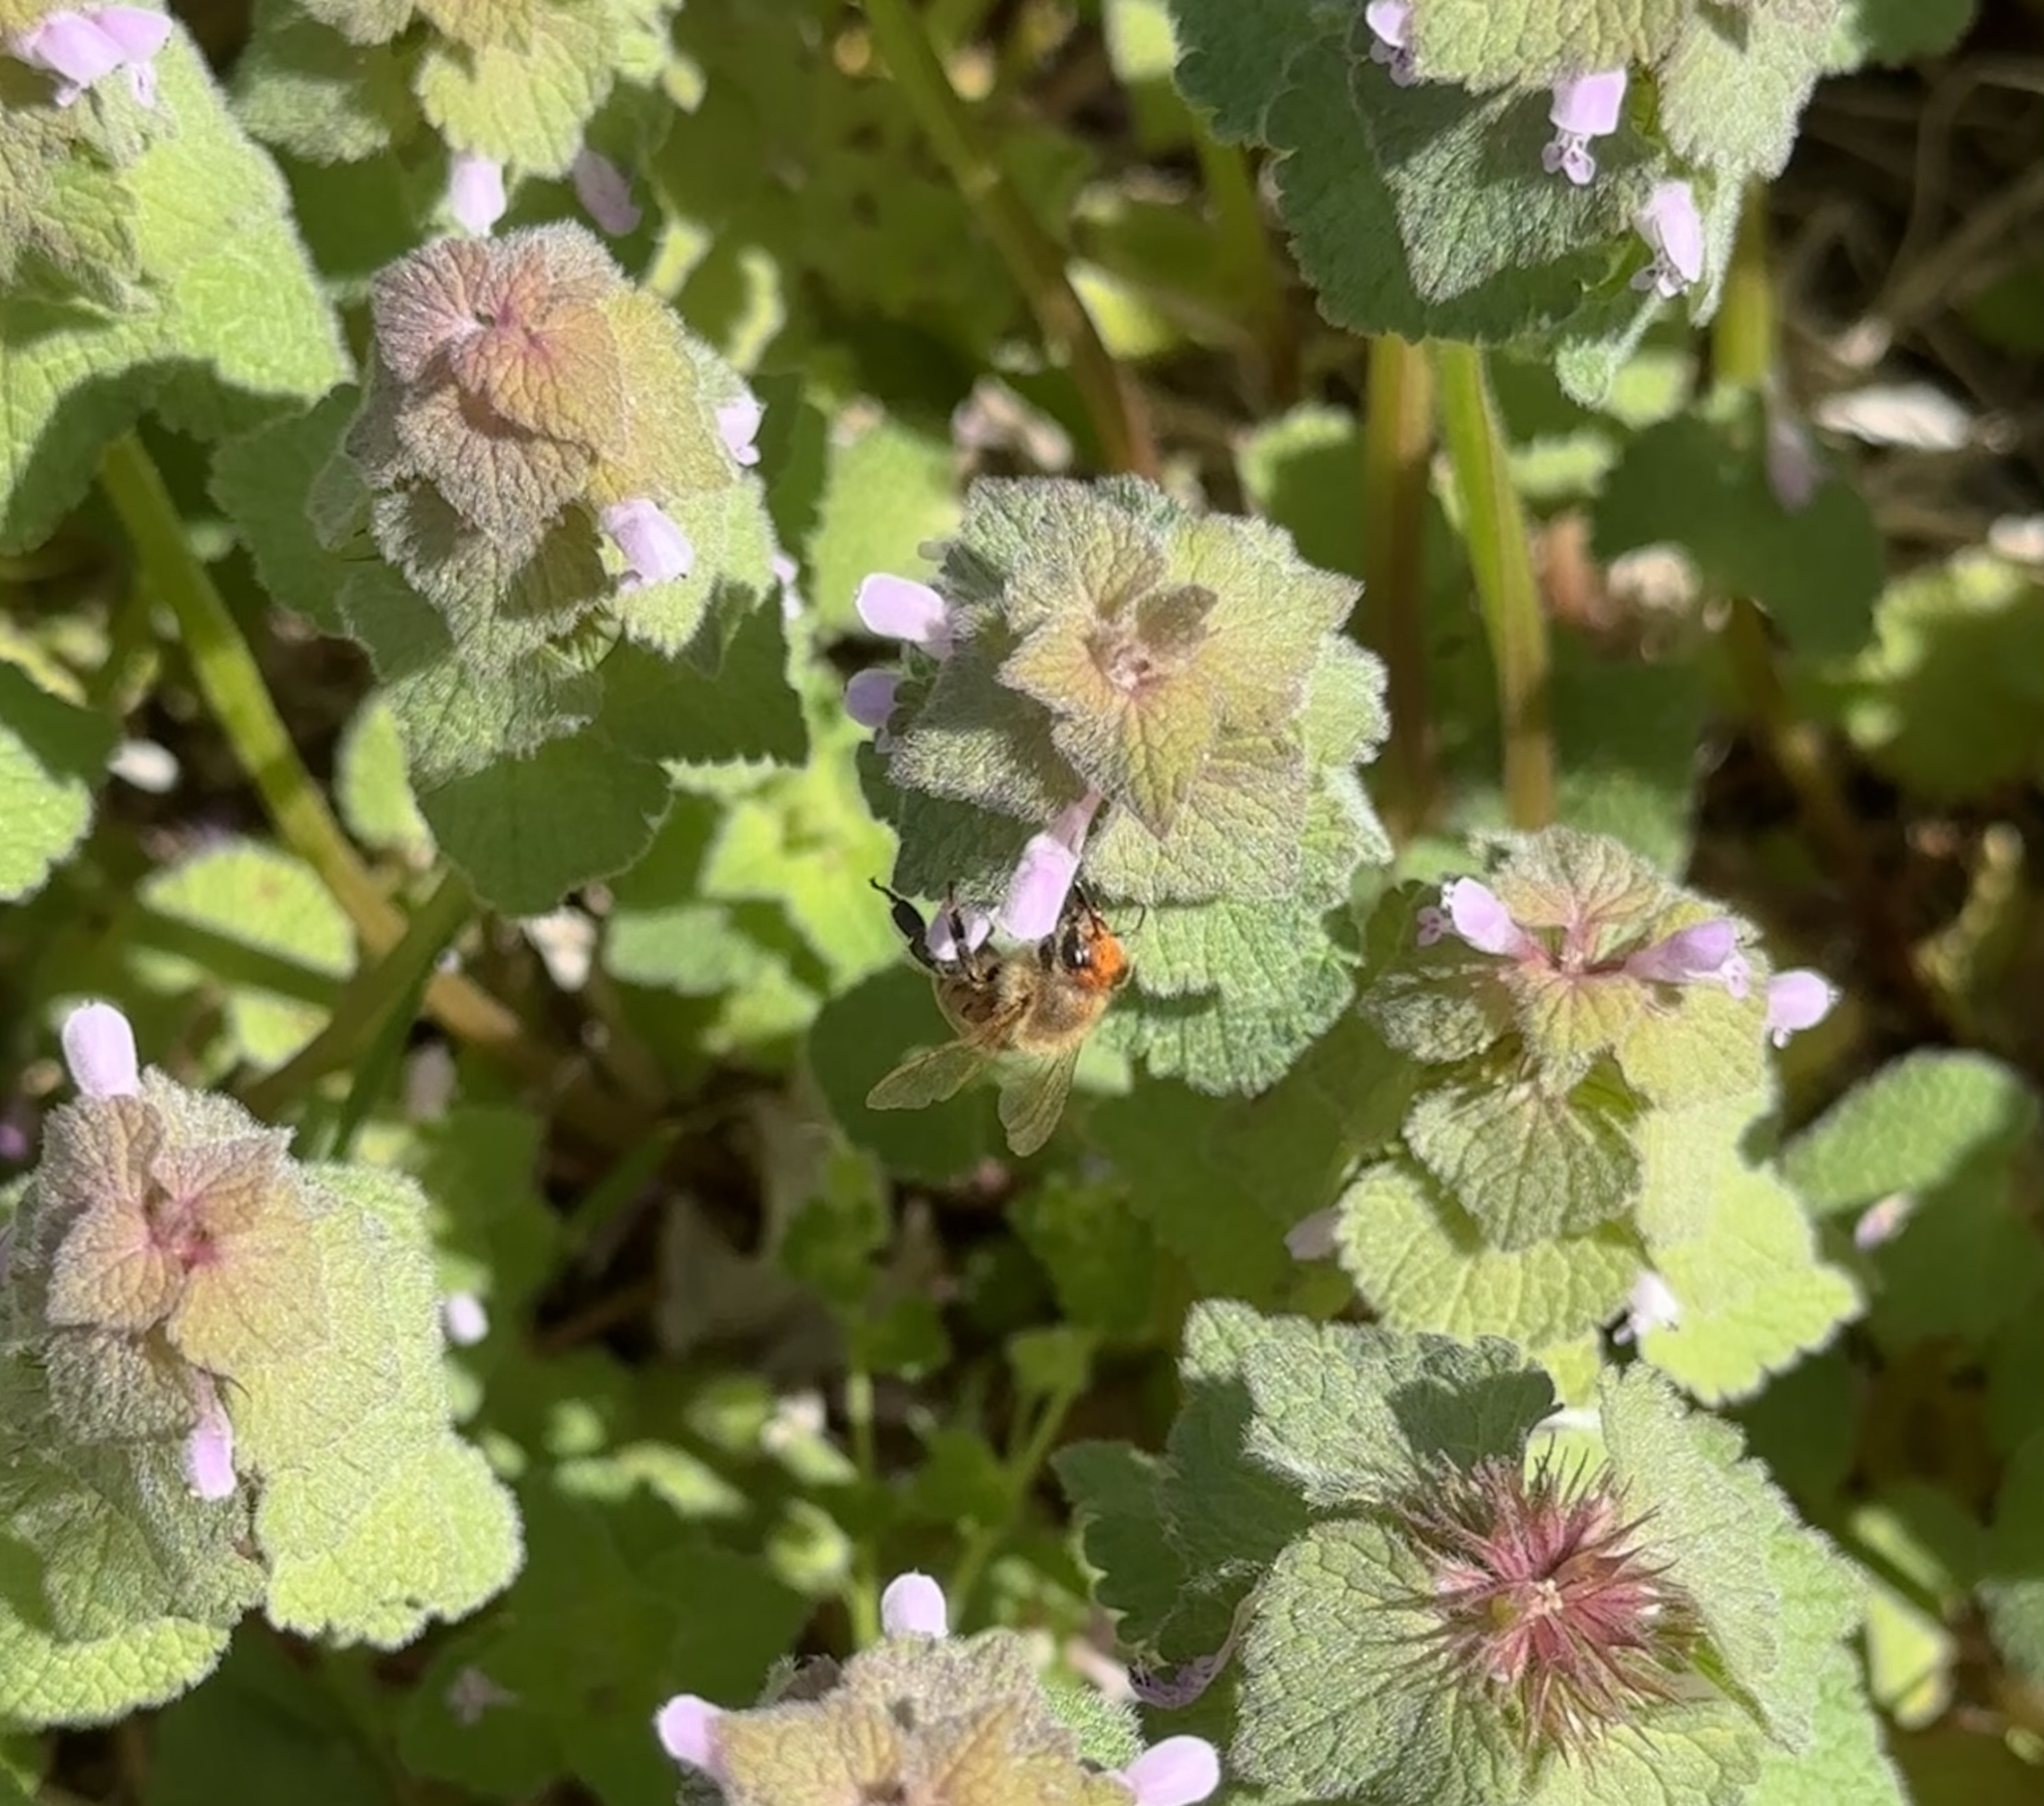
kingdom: Animalia
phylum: Arthropoda
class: Insecta
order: Hymenoptera
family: Apidae
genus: Apis
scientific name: Apis mellifera
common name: Honey bee
